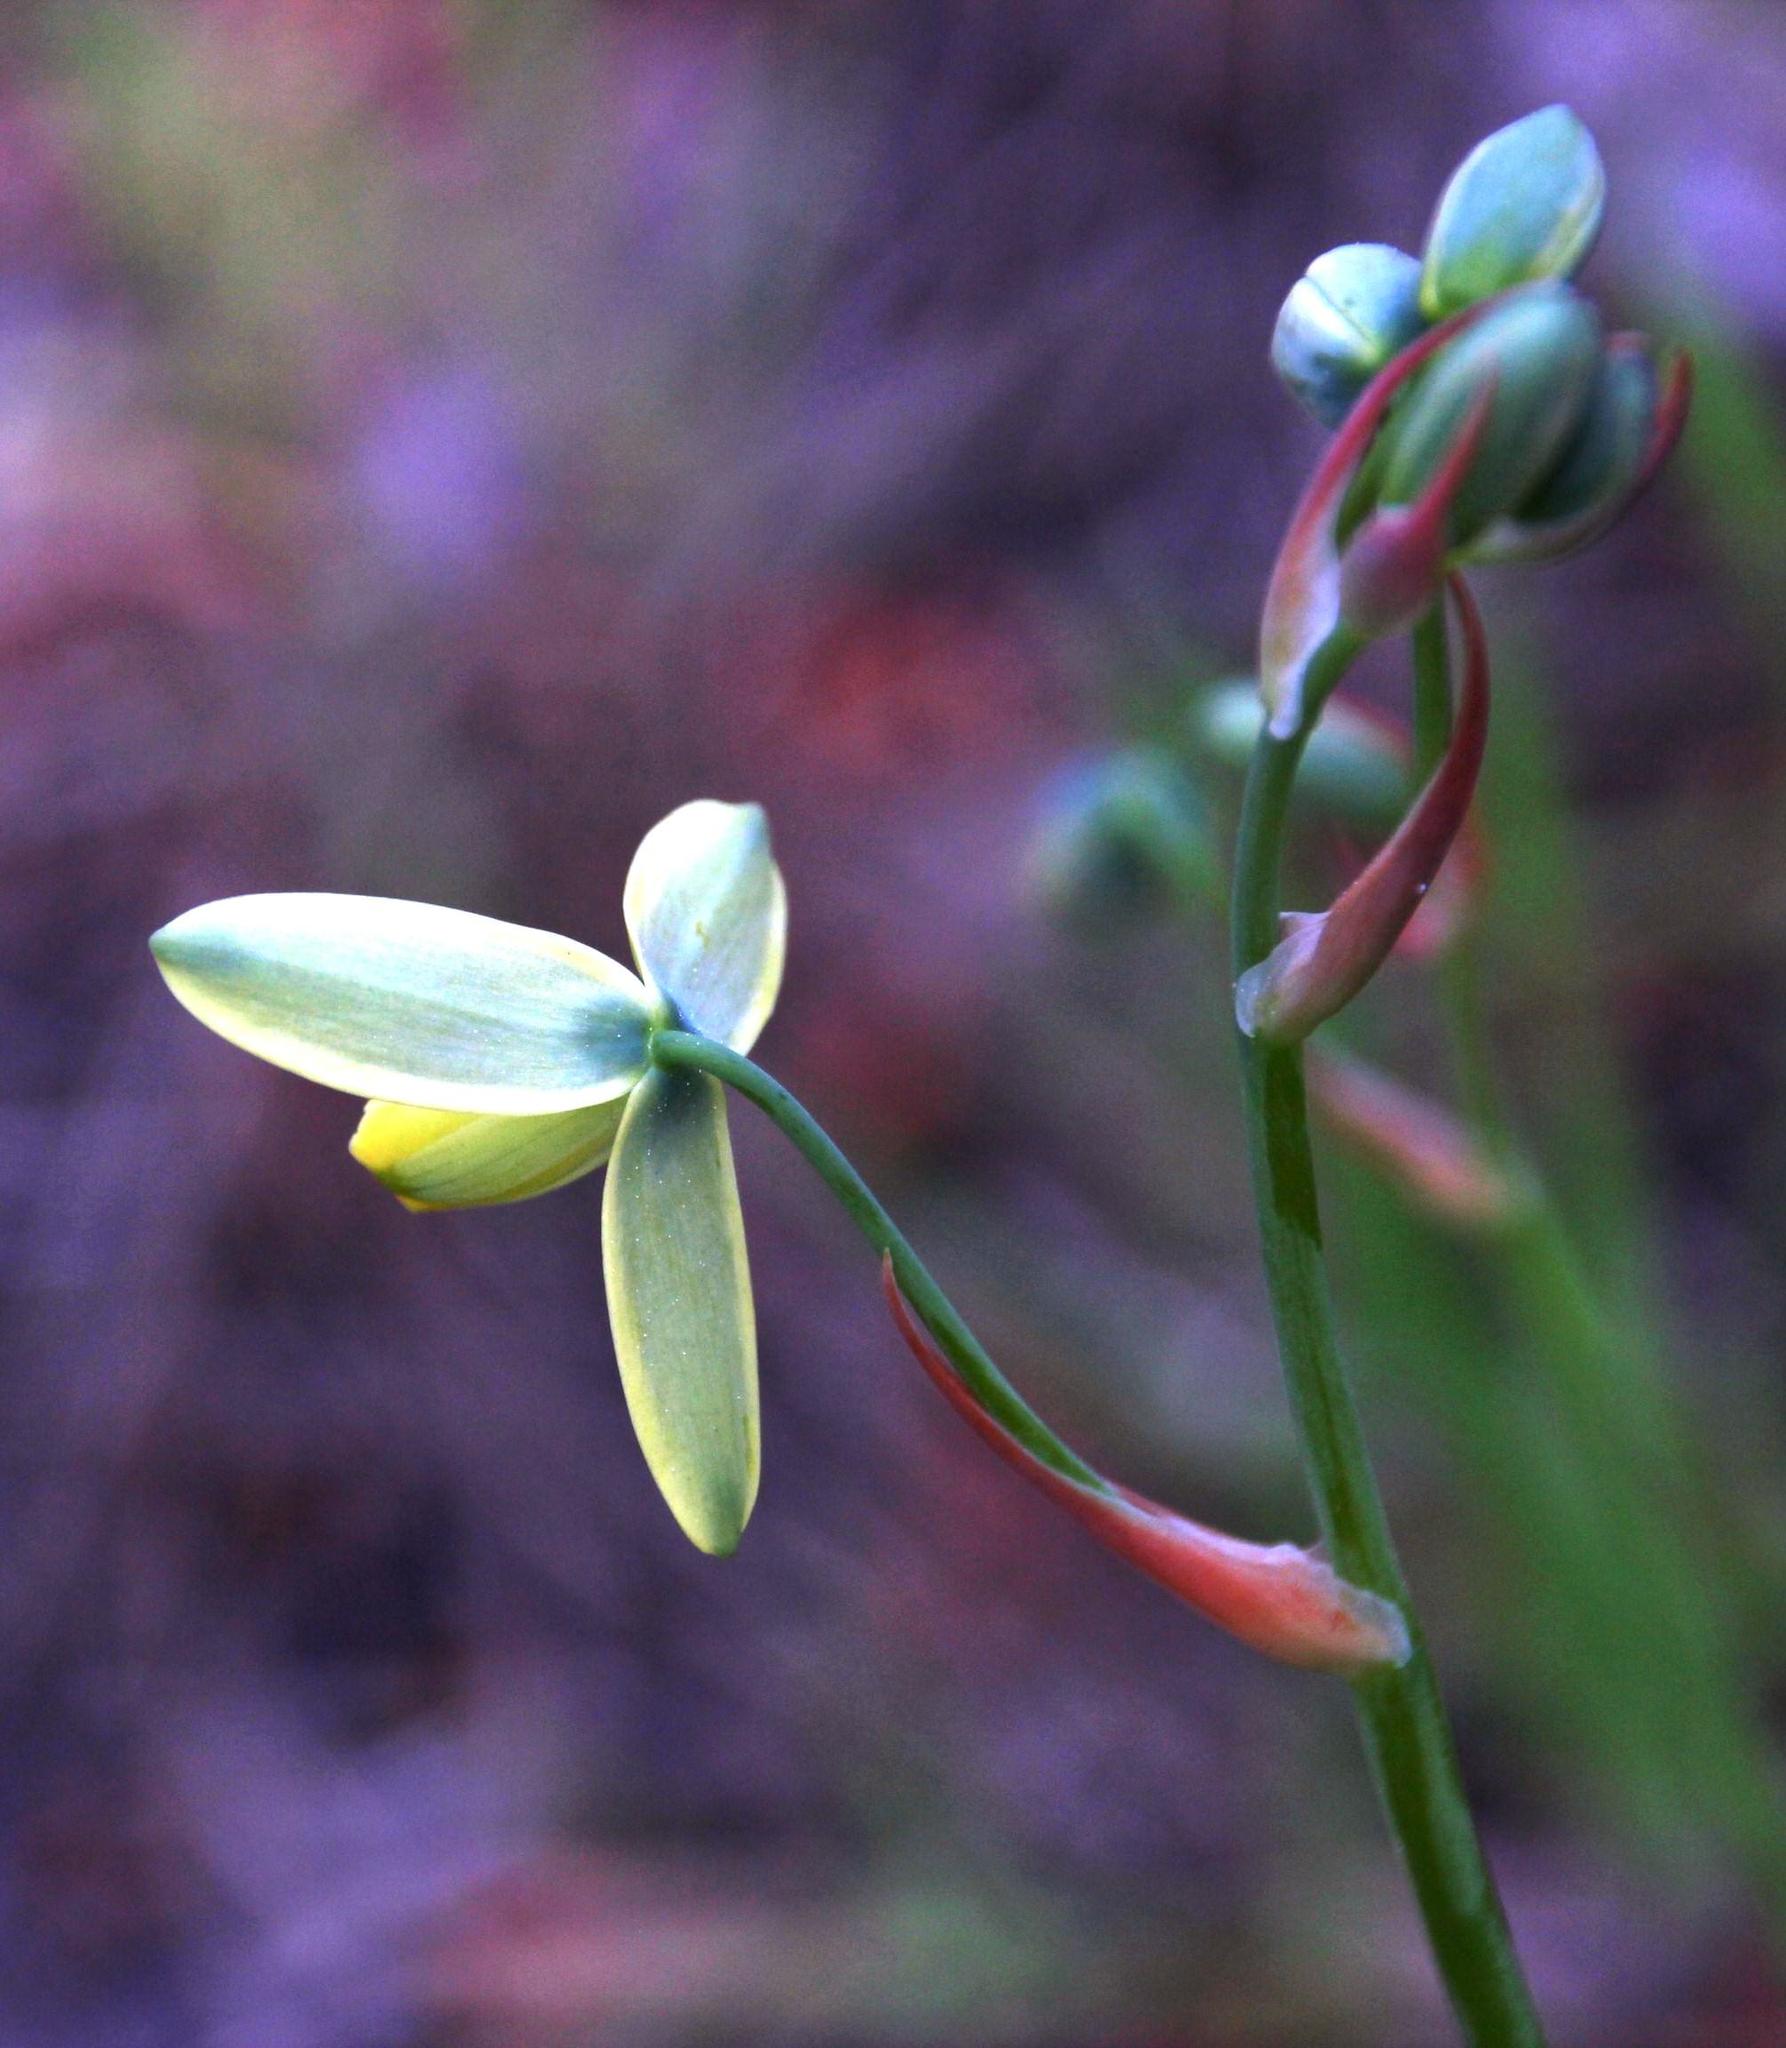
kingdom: Plantae
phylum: Tracheophyta
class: Liliopsida
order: Asparagales
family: Asparagaceae
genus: Albuca
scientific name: Albuca cooperi
